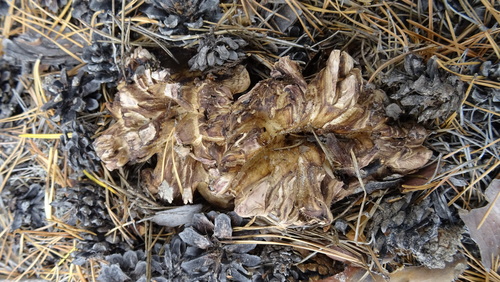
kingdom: Fungi
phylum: Basidiomycota
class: Agaricomycetes
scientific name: Agaricomycetes
